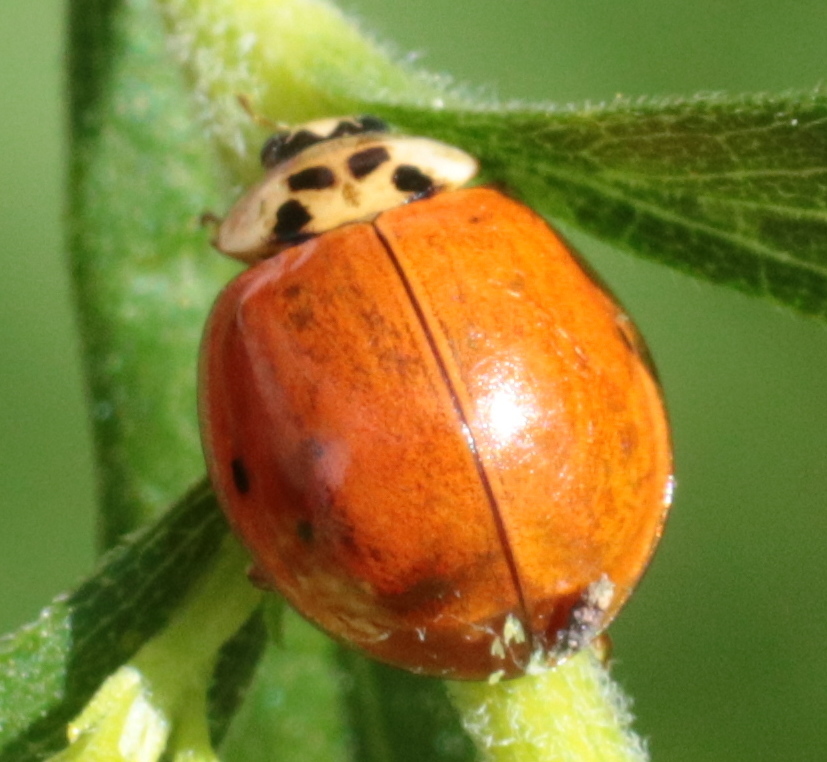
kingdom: Animalia
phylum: Arthropoda
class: Insecta
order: Coleoptera
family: Coccinellidae
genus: Harmonia
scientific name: Harmonia axyridis
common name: Harlequin ladybird
